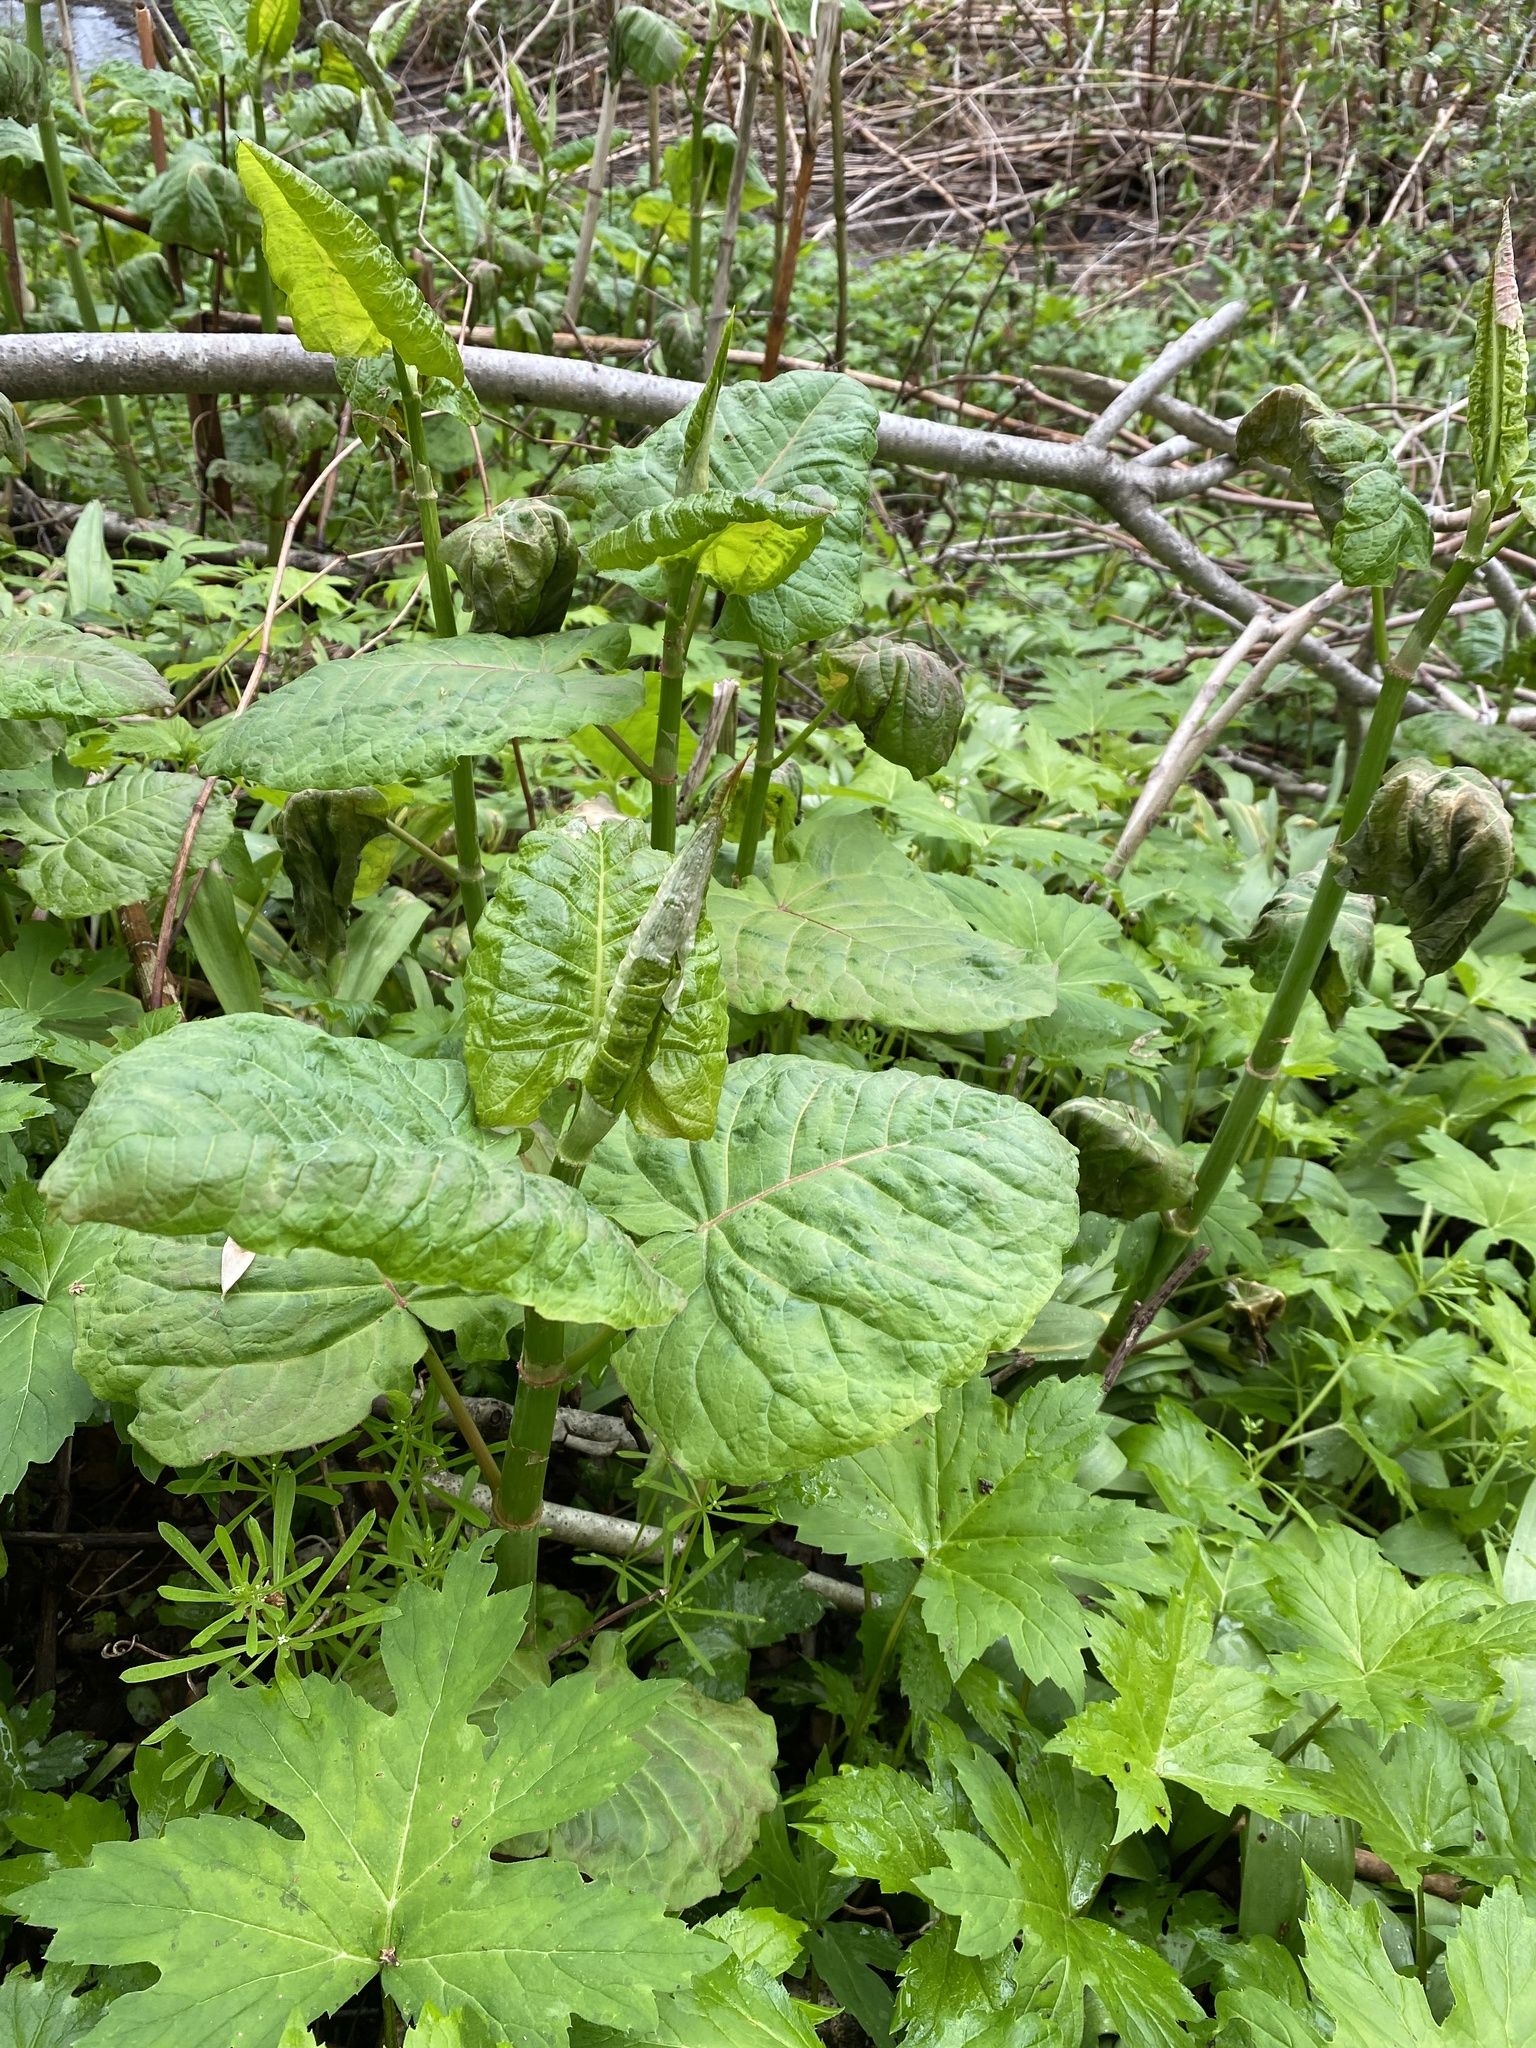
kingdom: Plantae
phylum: Tracheophyta
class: Magnoliopsida
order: Caryophyllales
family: Polygonaceae
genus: Reynoutria
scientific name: Reynoutria sachalinensis
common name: Giant knotweed
